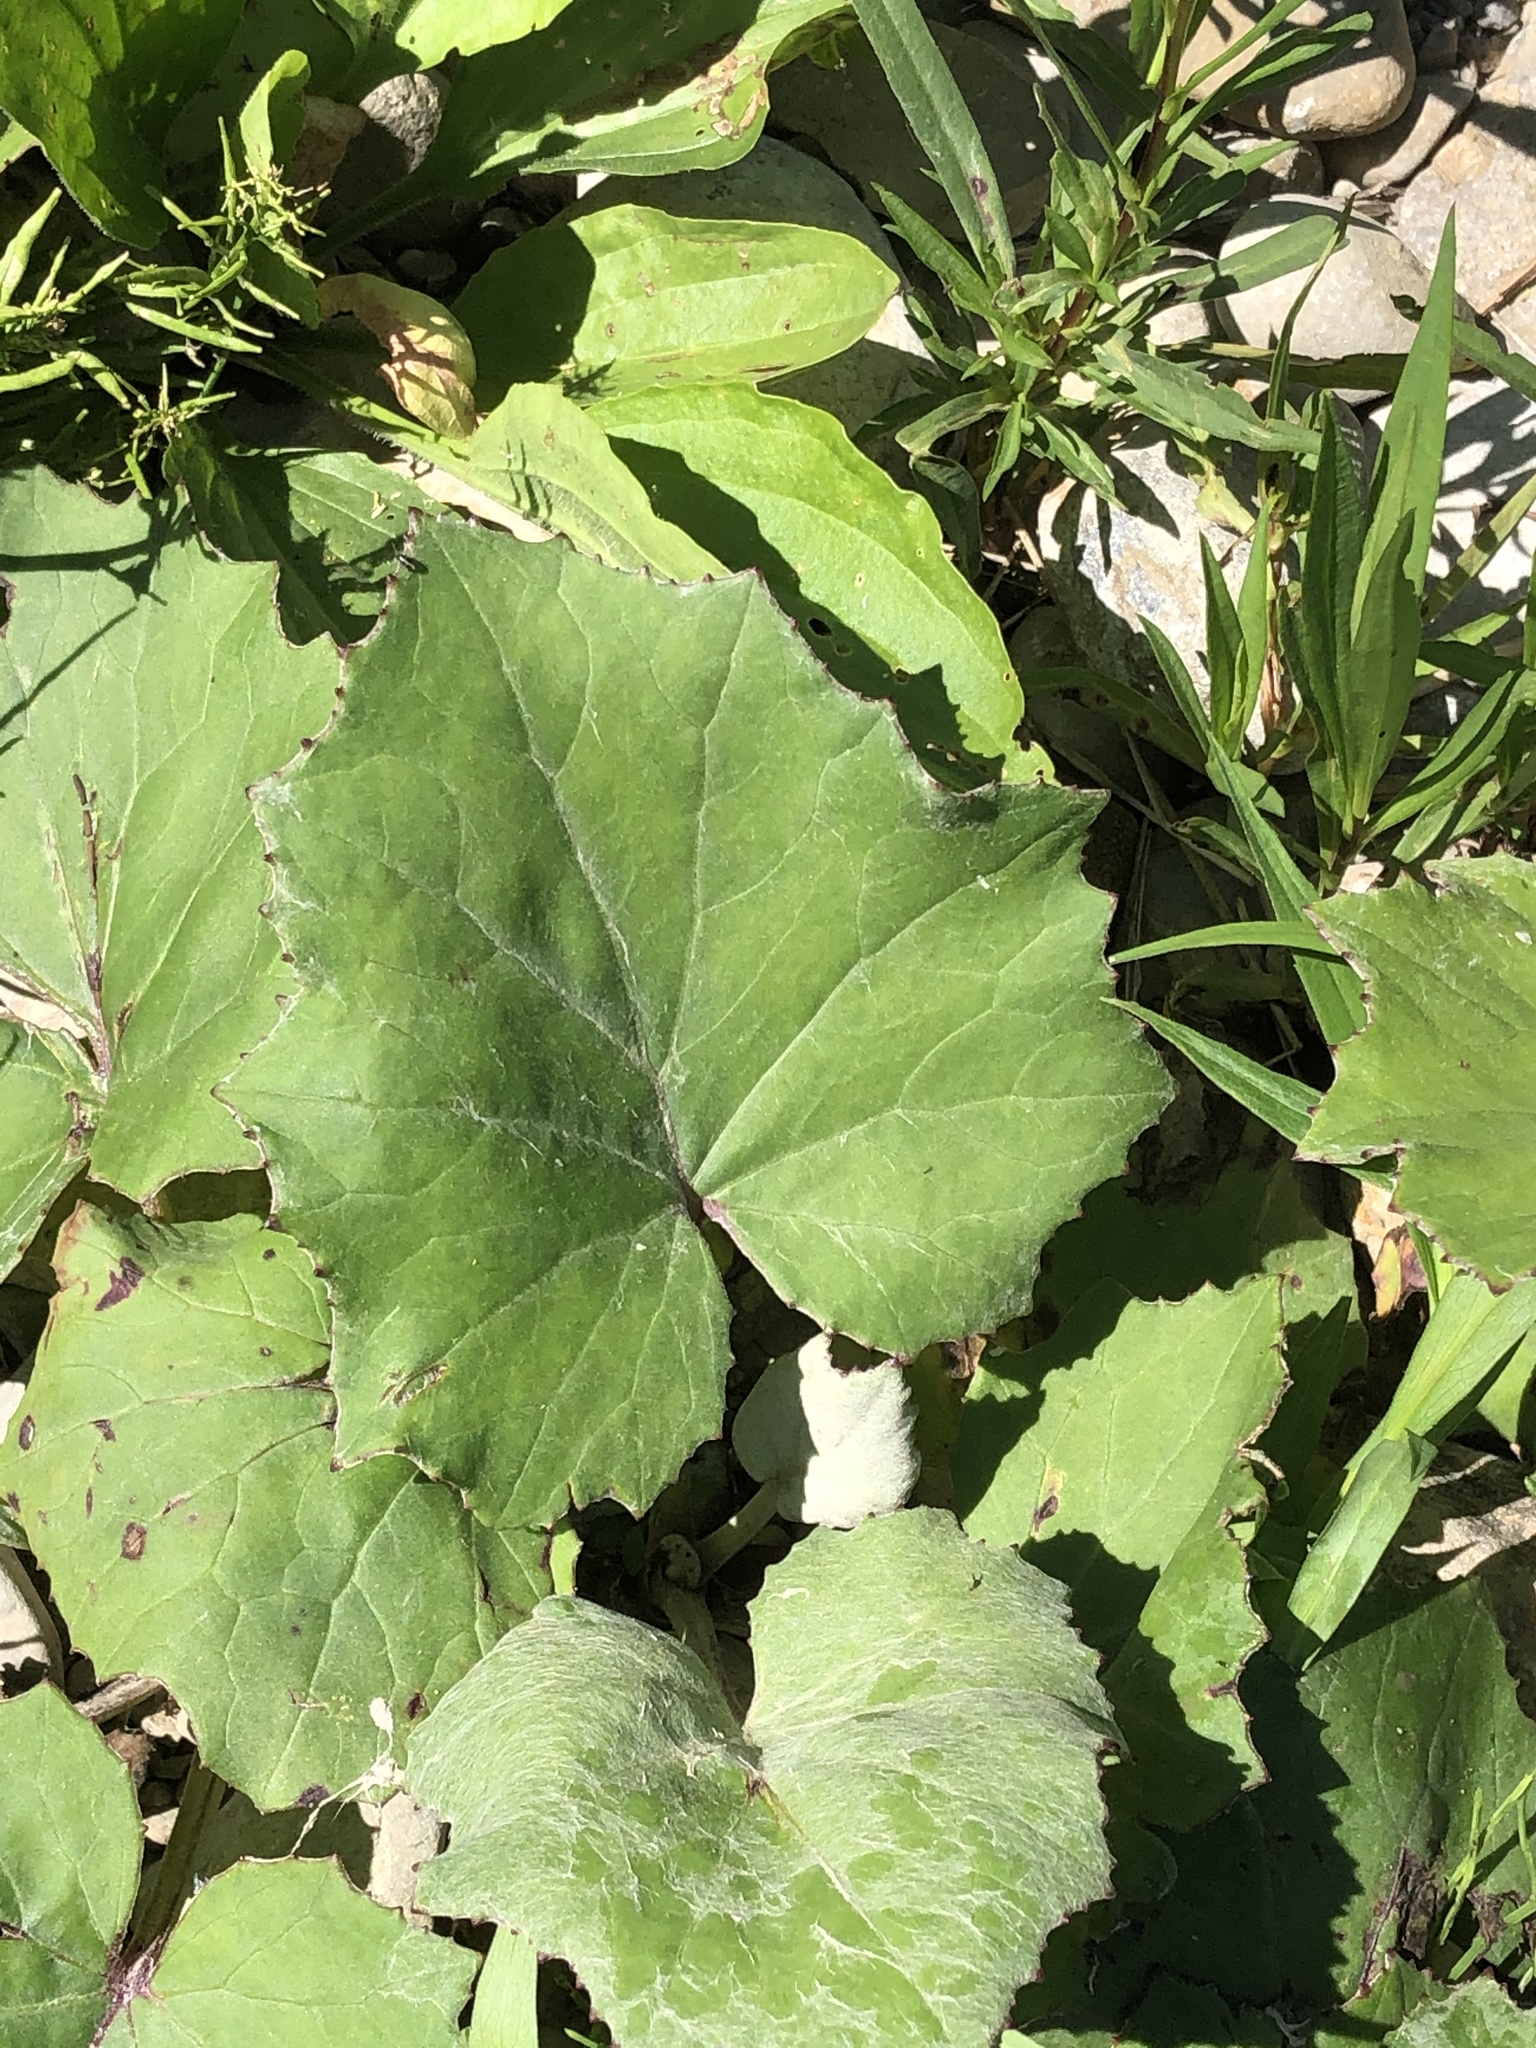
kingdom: Plantae
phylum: Tracheophyta
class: Magnoliopsida
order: Asterales
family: Asteraceae
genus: Tussilago
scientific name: Tussilago farfara
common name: Coltsfoot
